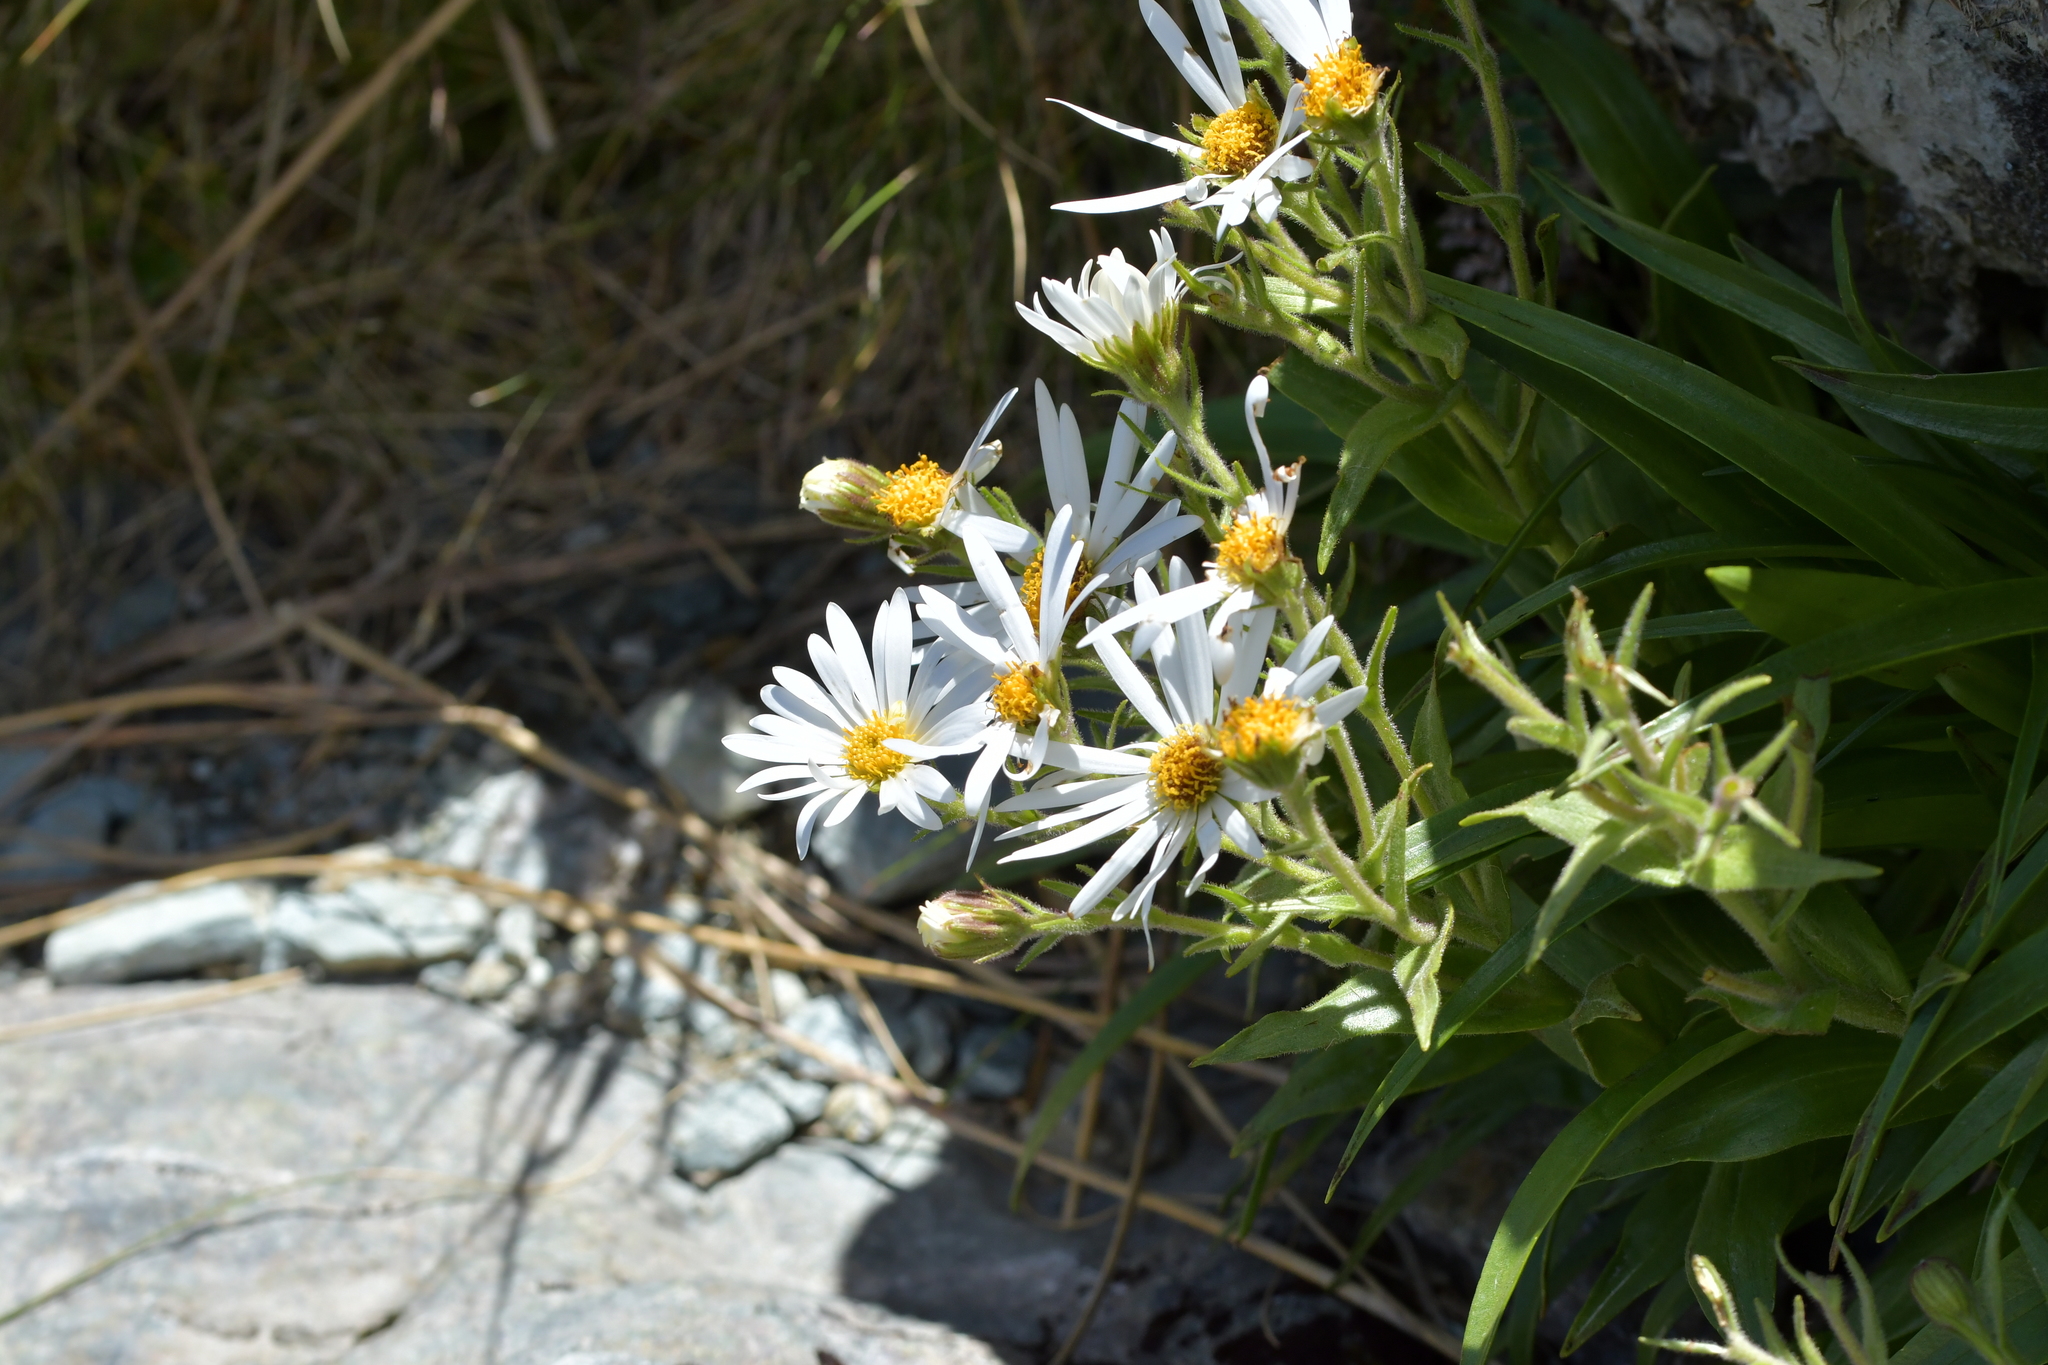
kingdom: Plantae
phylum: Tracheophyta
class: Magnoliopsida
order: Asterales
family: Asteraceae
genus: Dolichoglottis
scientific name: Dolichoglottis scorzoneroides
